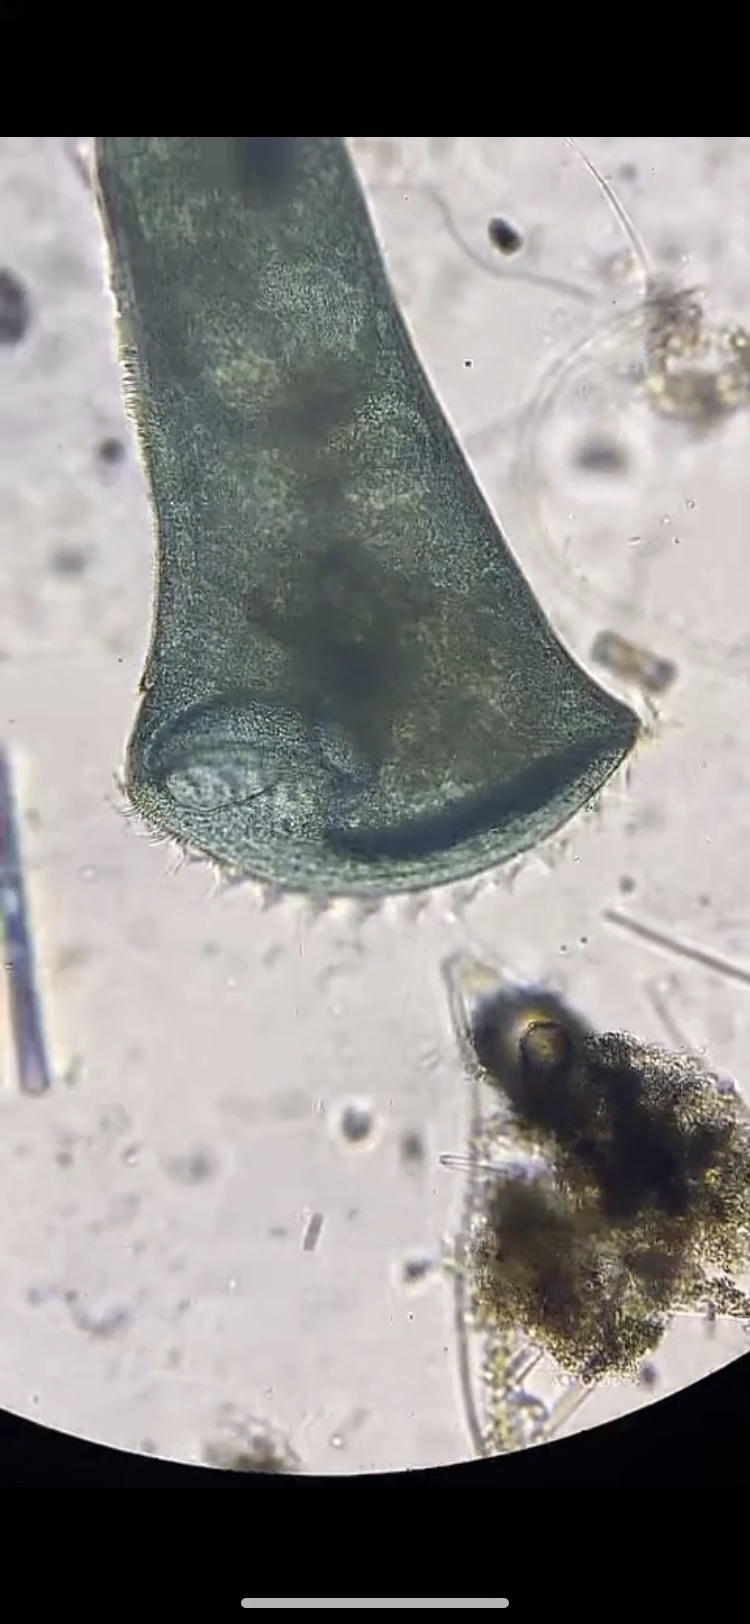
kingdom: Chromista
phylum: Ciliophora
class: Heterotrichea
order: Heterotrichida
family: Stentoridae
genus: Stentor
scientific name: Stentor coeruleus
